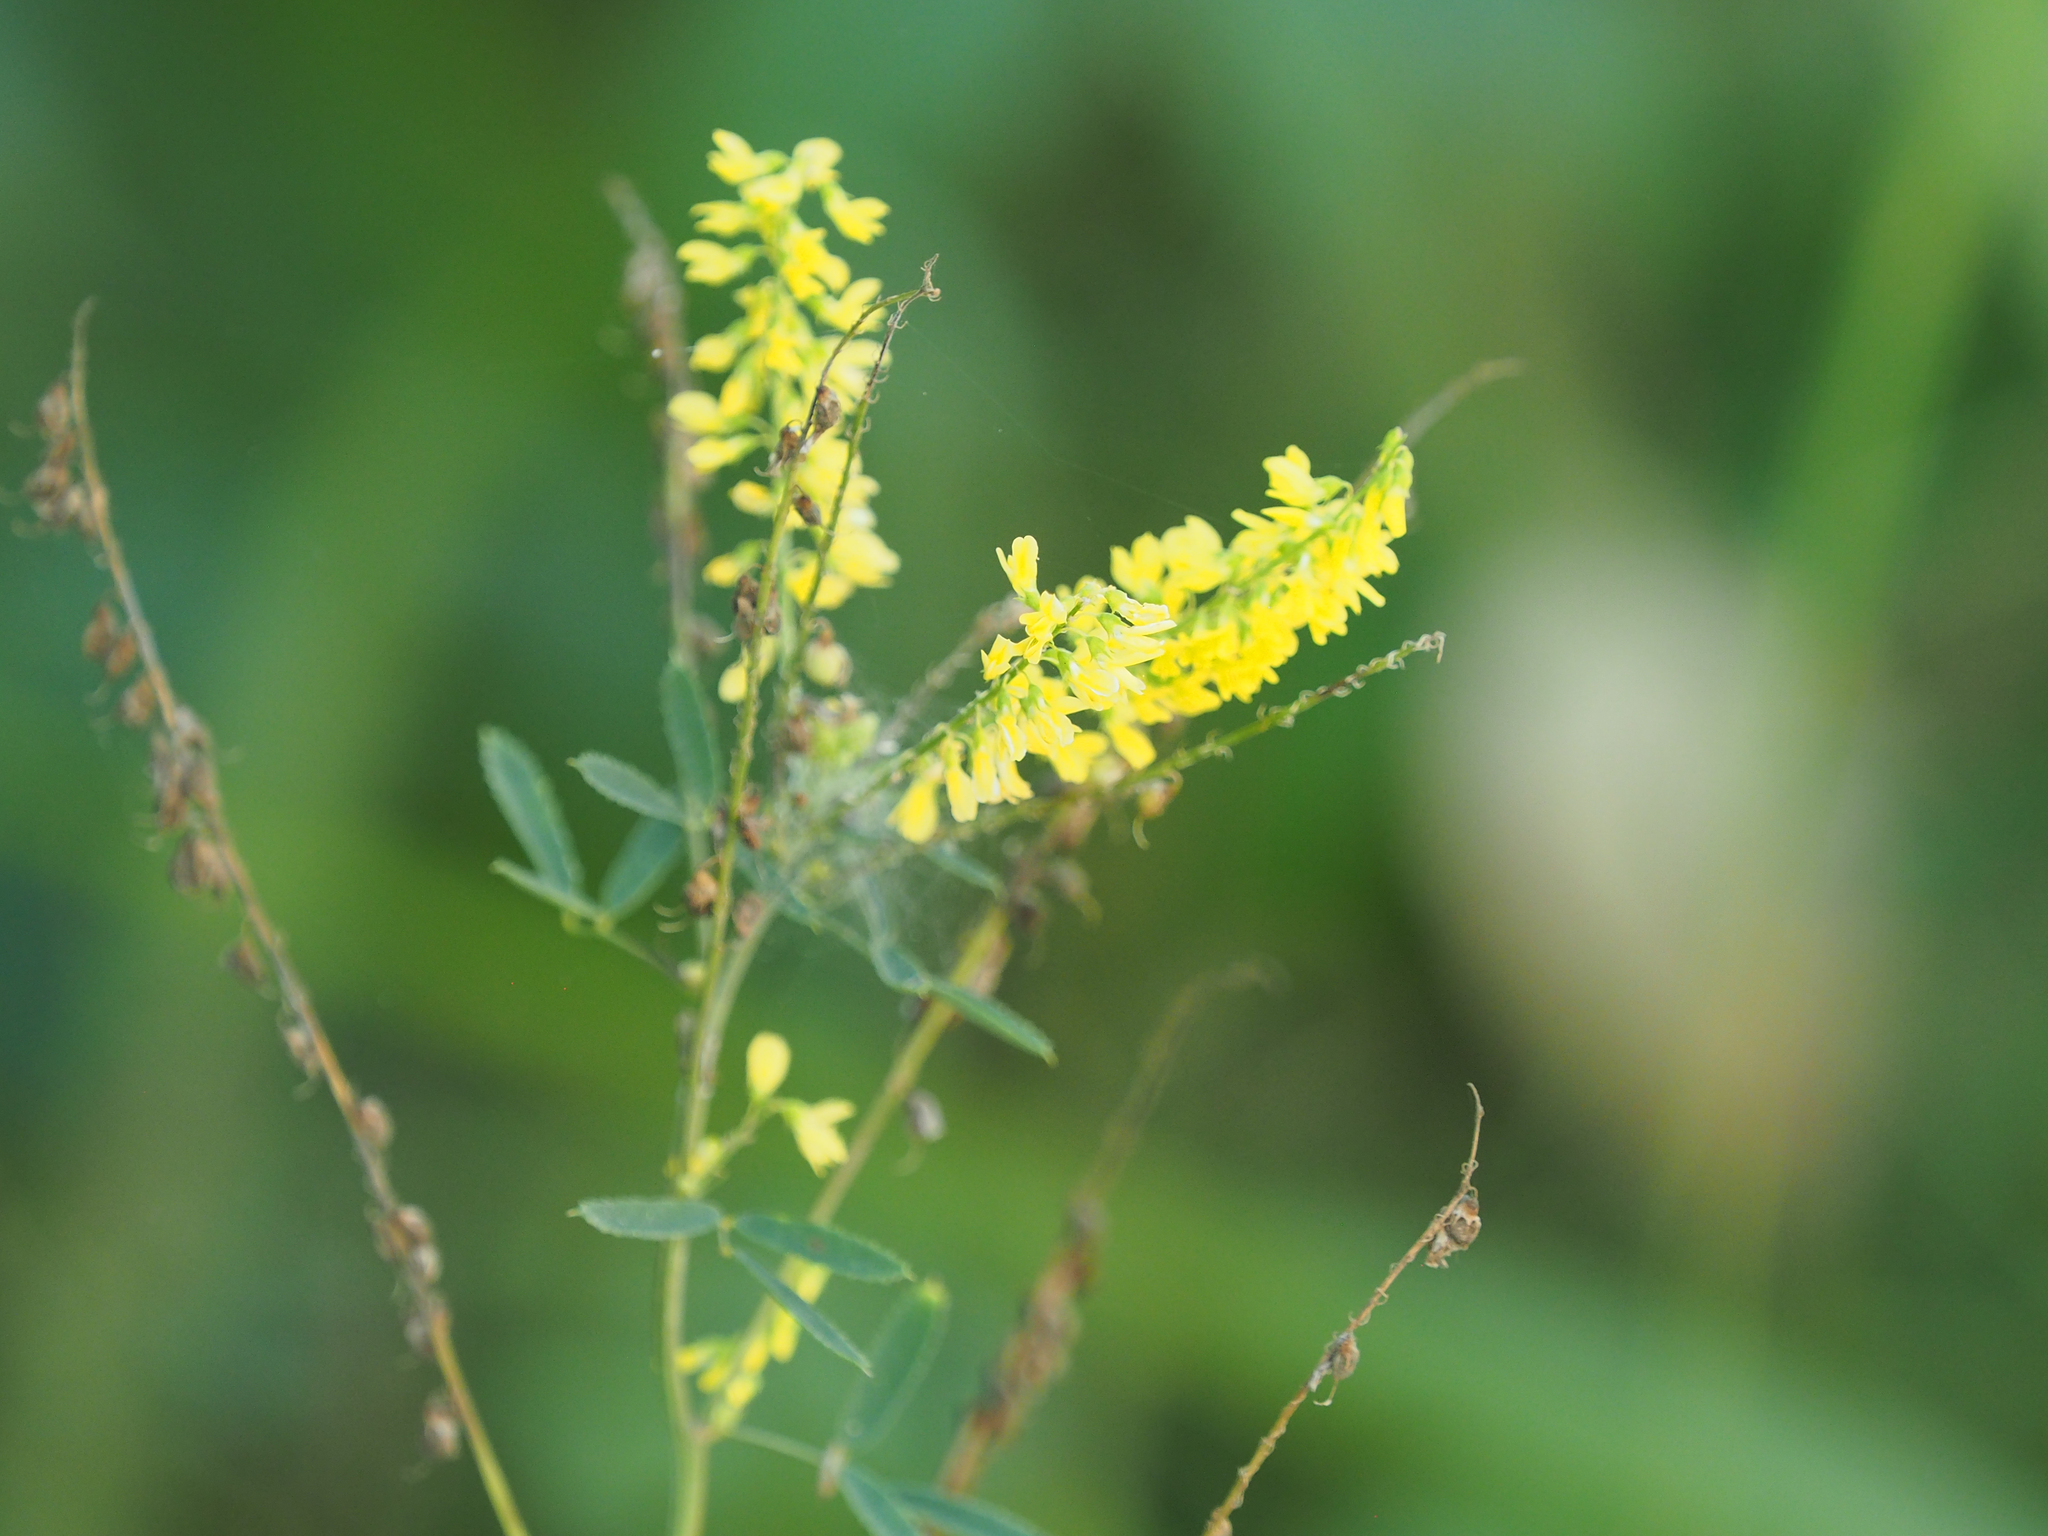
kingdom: Plantae
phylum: Tracheophyta
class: Magnoliopsida
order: Fabales
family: Fabaceae
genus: Melilotus
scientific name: Melilotus officinalis
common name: Sweetclover
